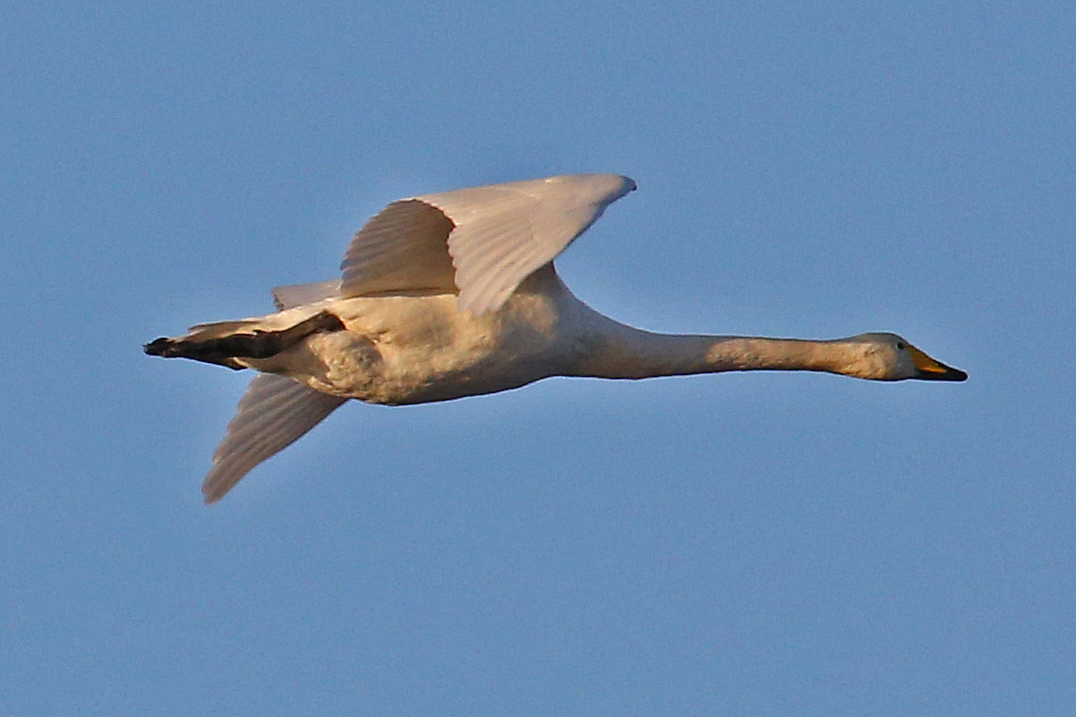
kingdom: Animalia
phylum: Chordata
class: Aves
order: Anseriformes
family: Anatidae
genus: Cygnus
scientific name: Cygnus cygnus
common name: Whooper swan
